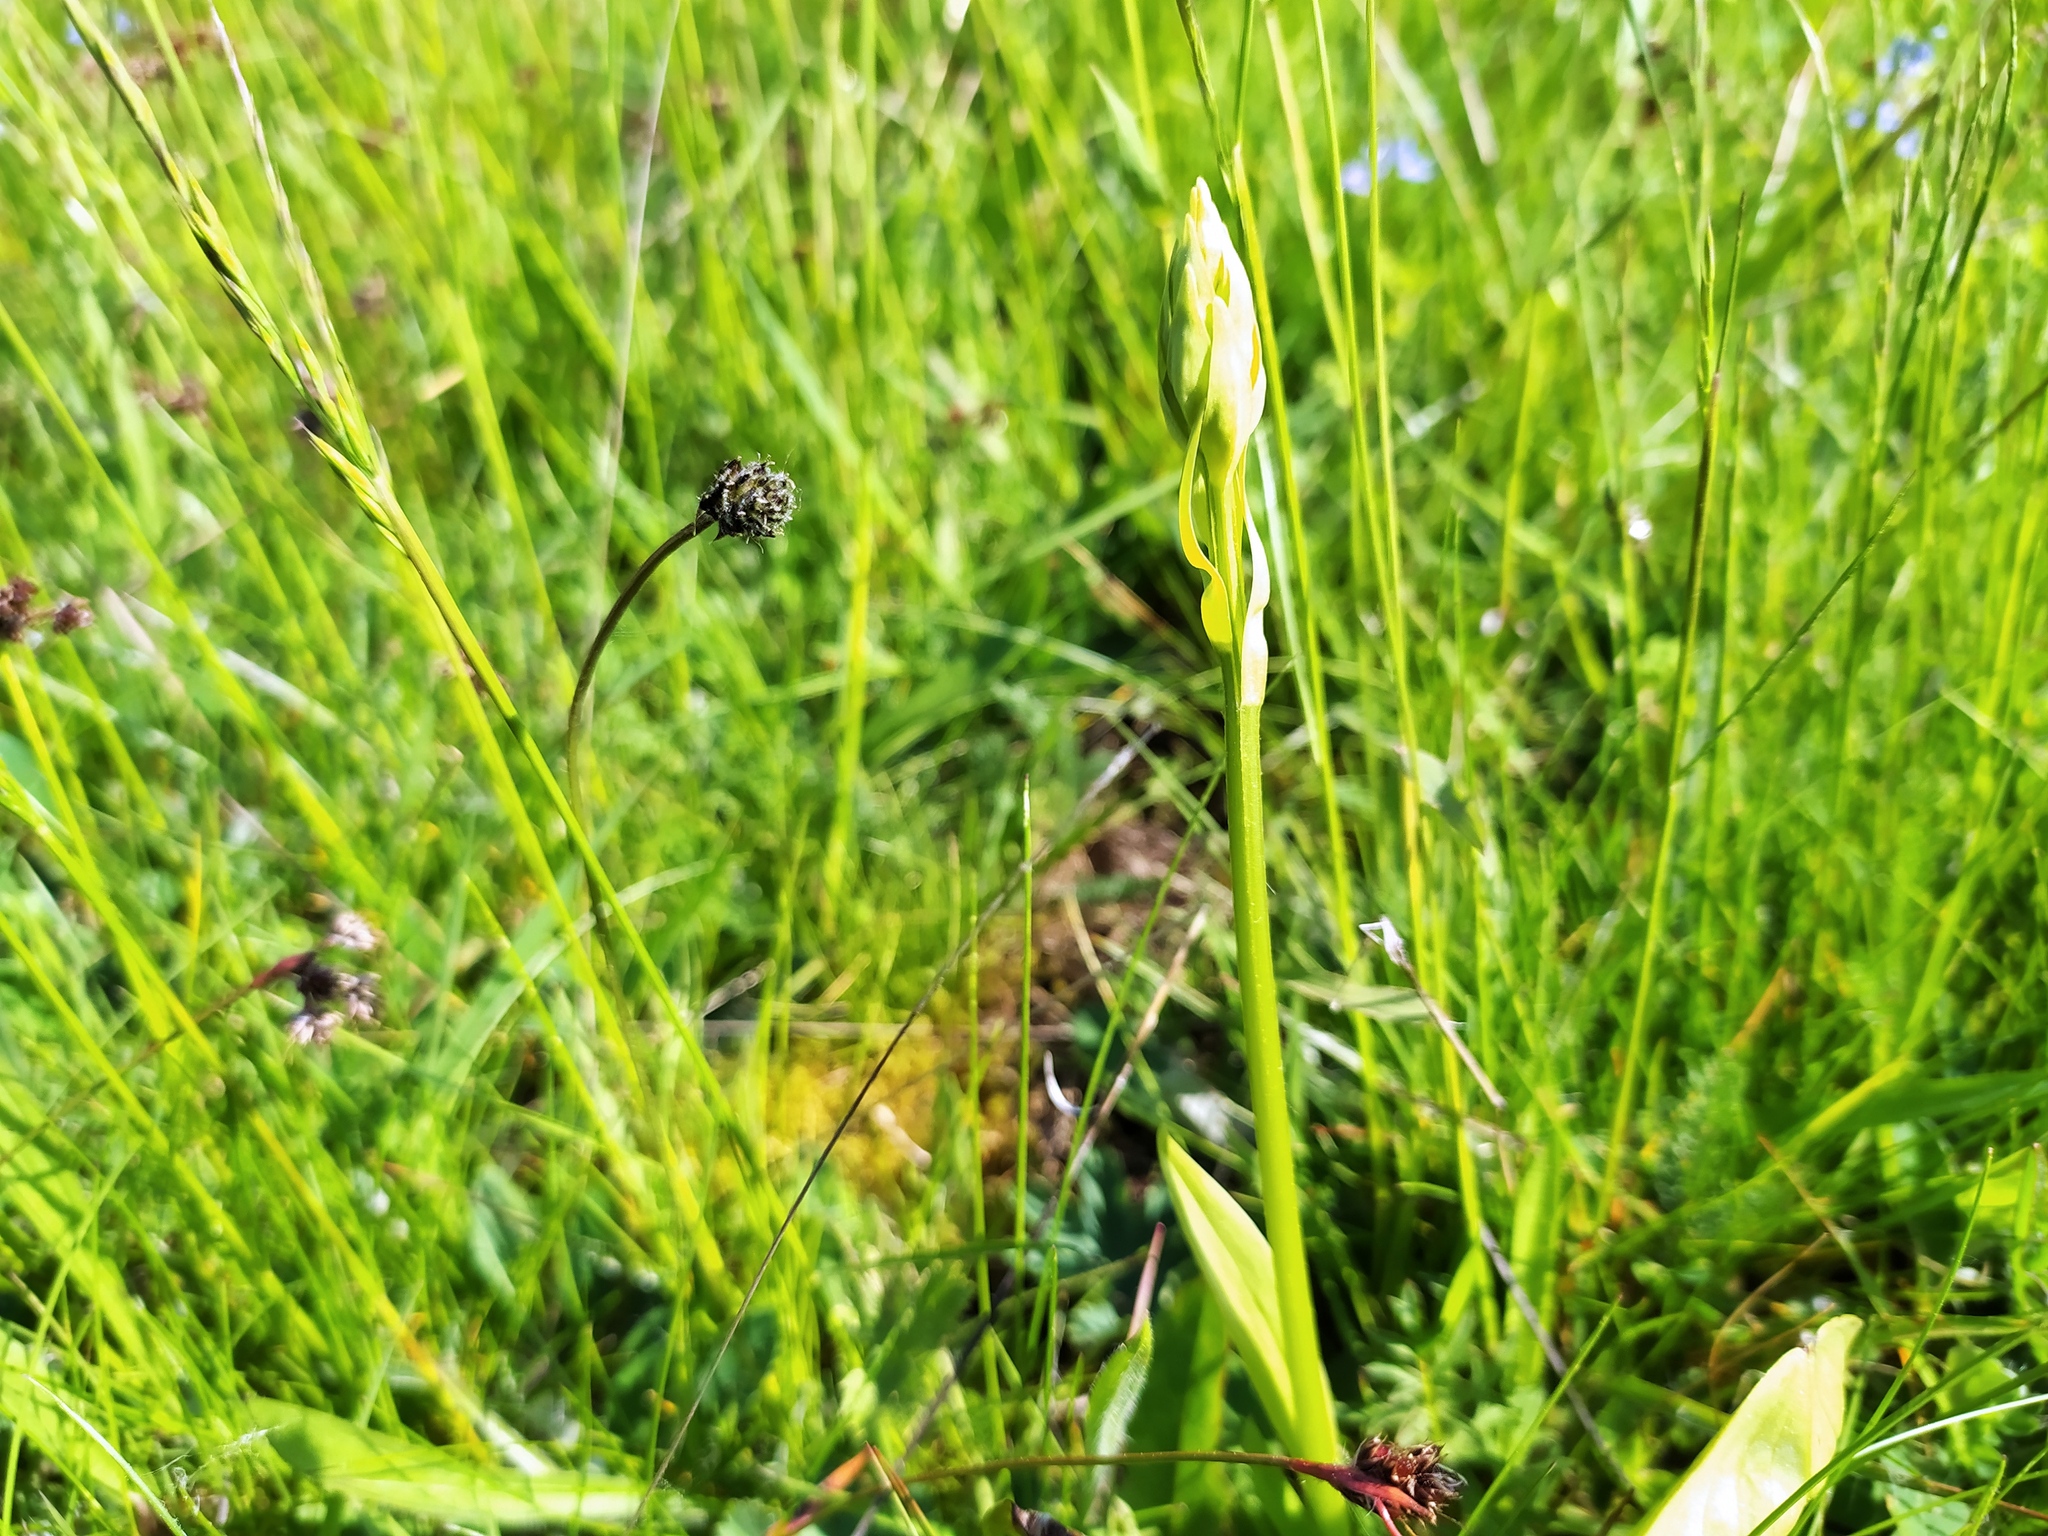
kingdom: Plantae
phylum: Tracheophyta
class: Liliopsida
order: Asparagales
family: Orchidaceae
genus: Platanthera
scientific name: Platanthera chlorantha
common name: Greater butterfly-orchid
